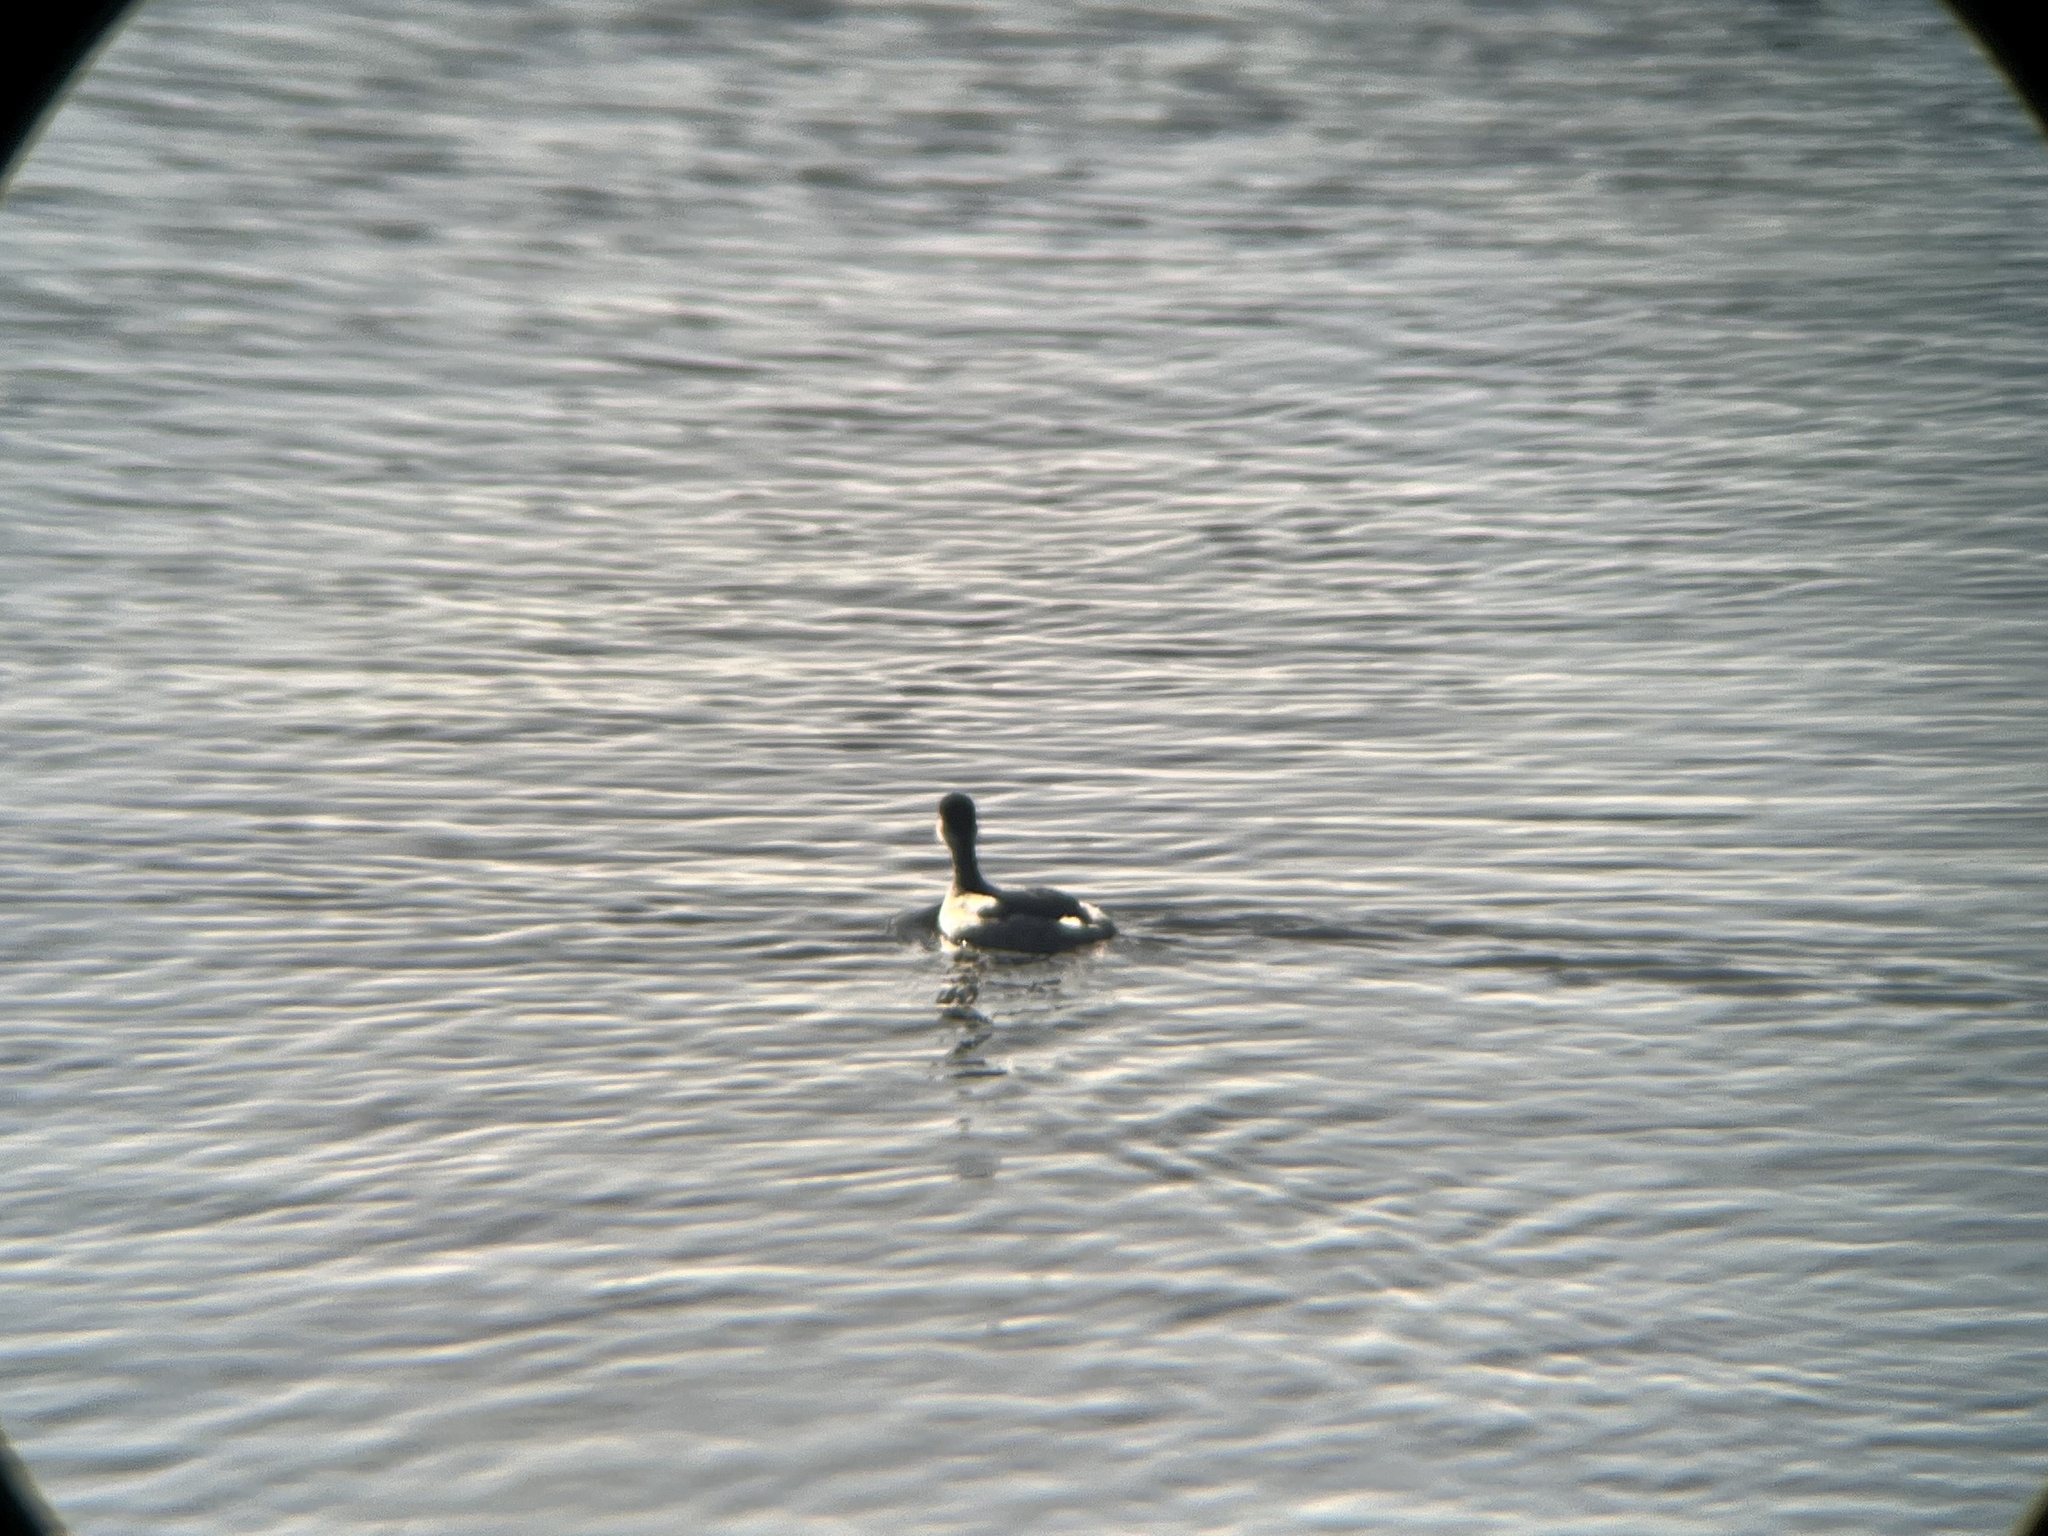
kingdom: Animalia
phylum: Chordata
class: Aves
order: Podicipediformes
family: Podicipedidae
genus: Podiceps
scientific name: Podiceps nigricollis
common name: Black-necked grebe
